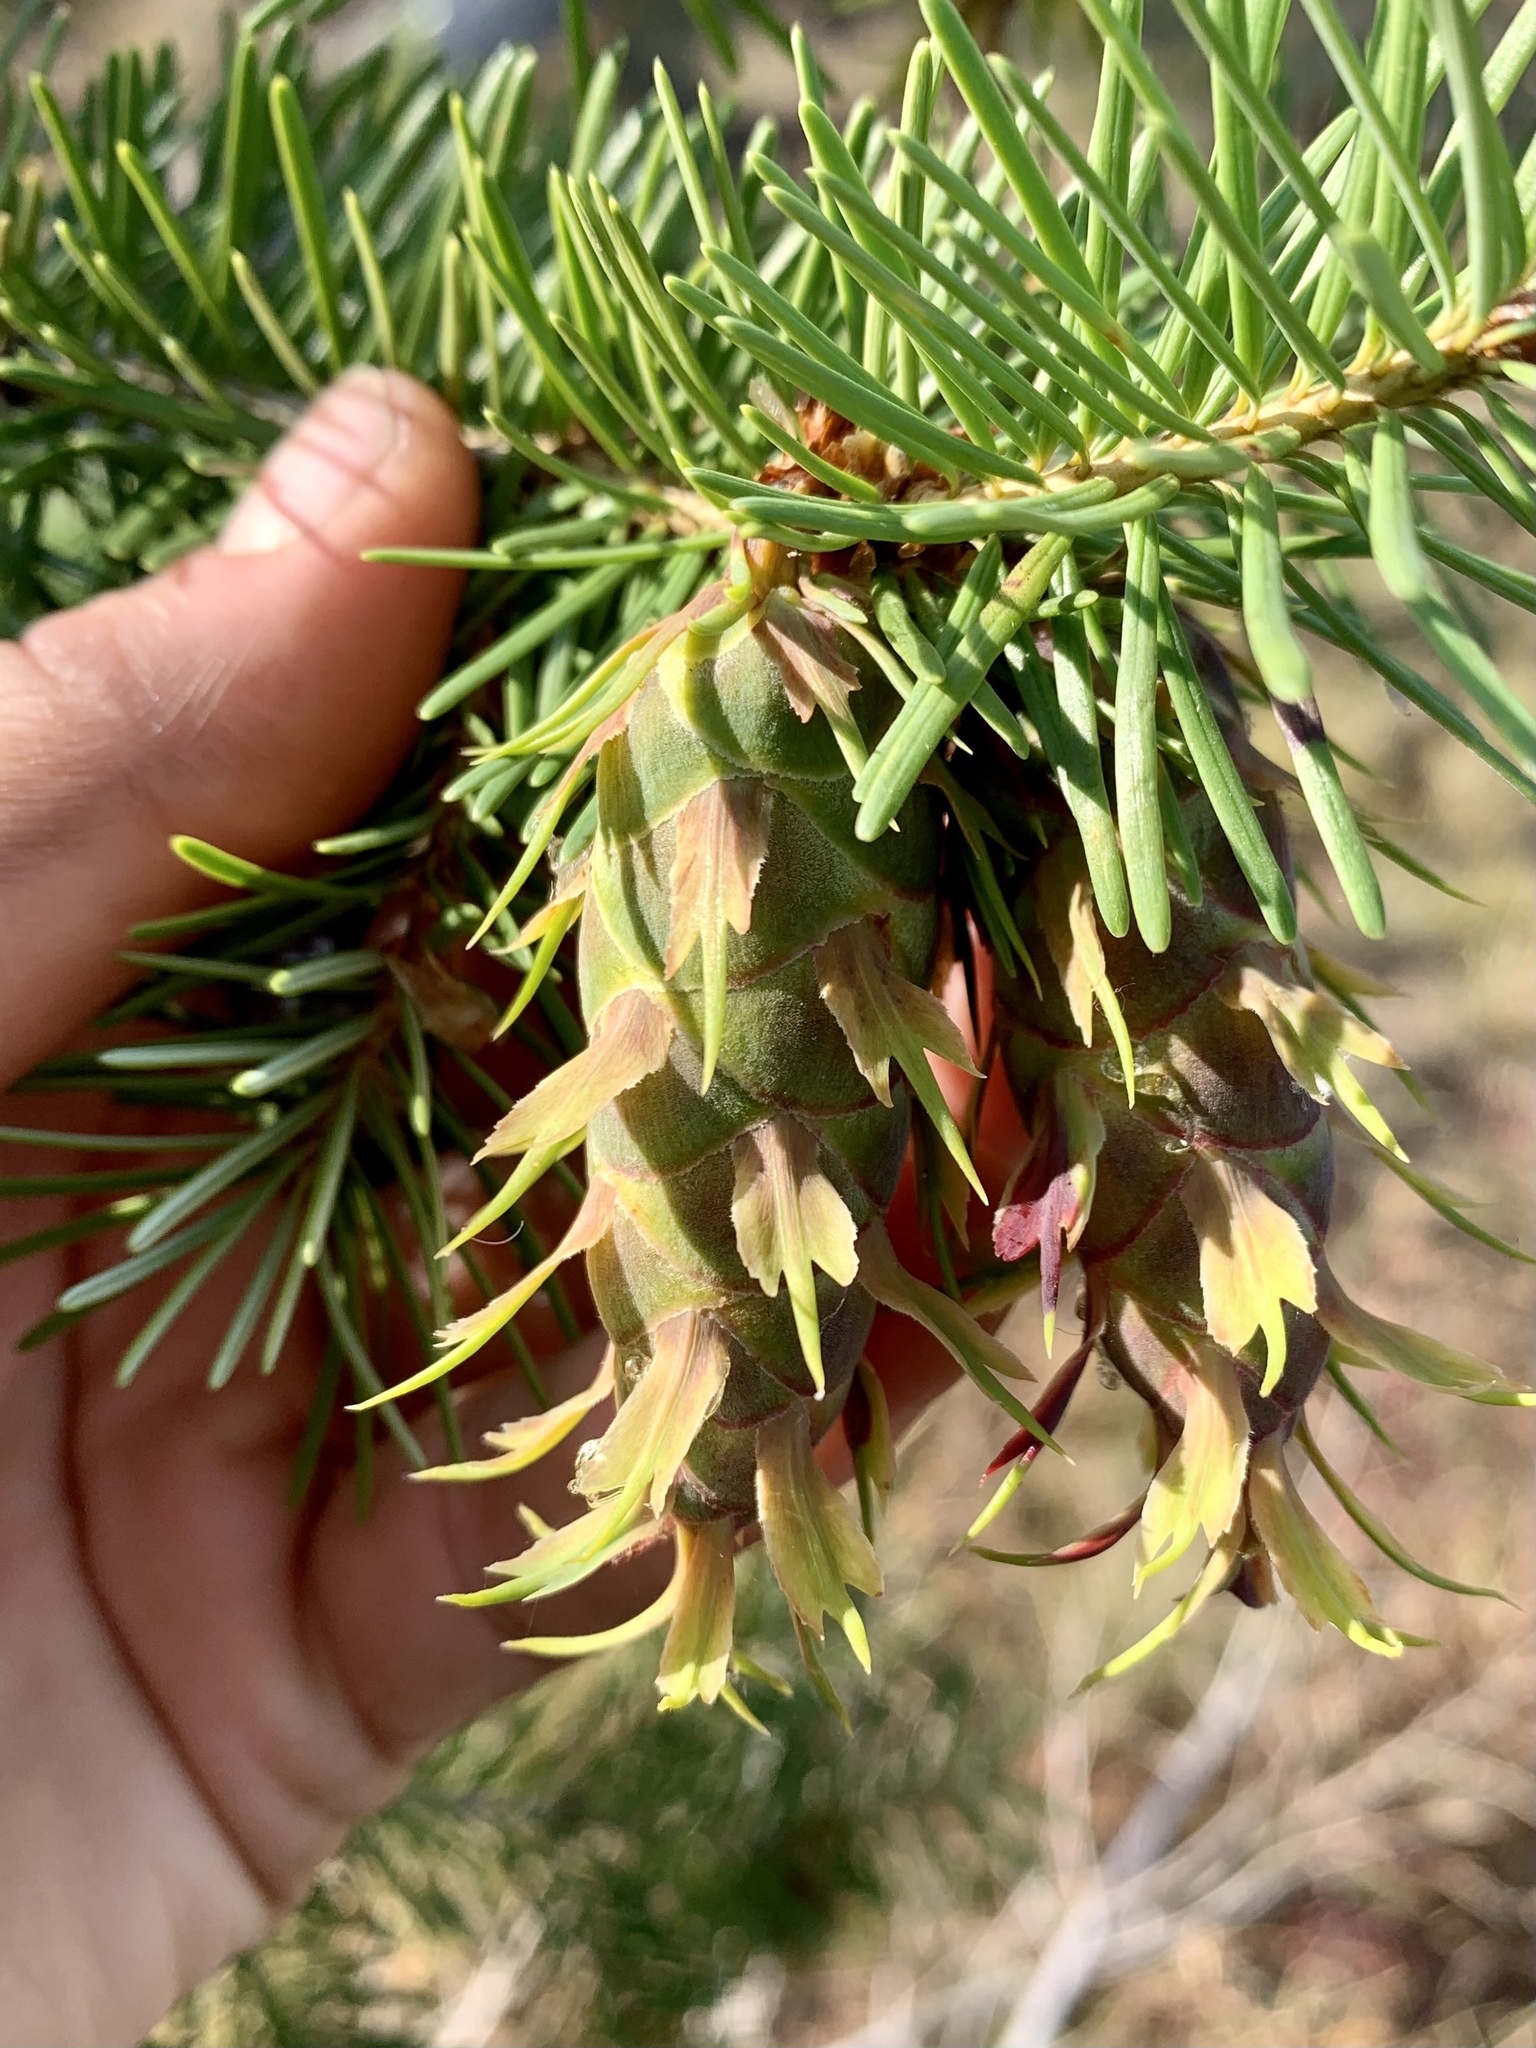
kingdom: Plantae
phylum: Tracheophyta
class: Pinopsida
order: Pinales
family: Pinaceae
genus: Pseudotsuga
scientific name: Pseudotsuga menziesii
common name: Douglas fir
